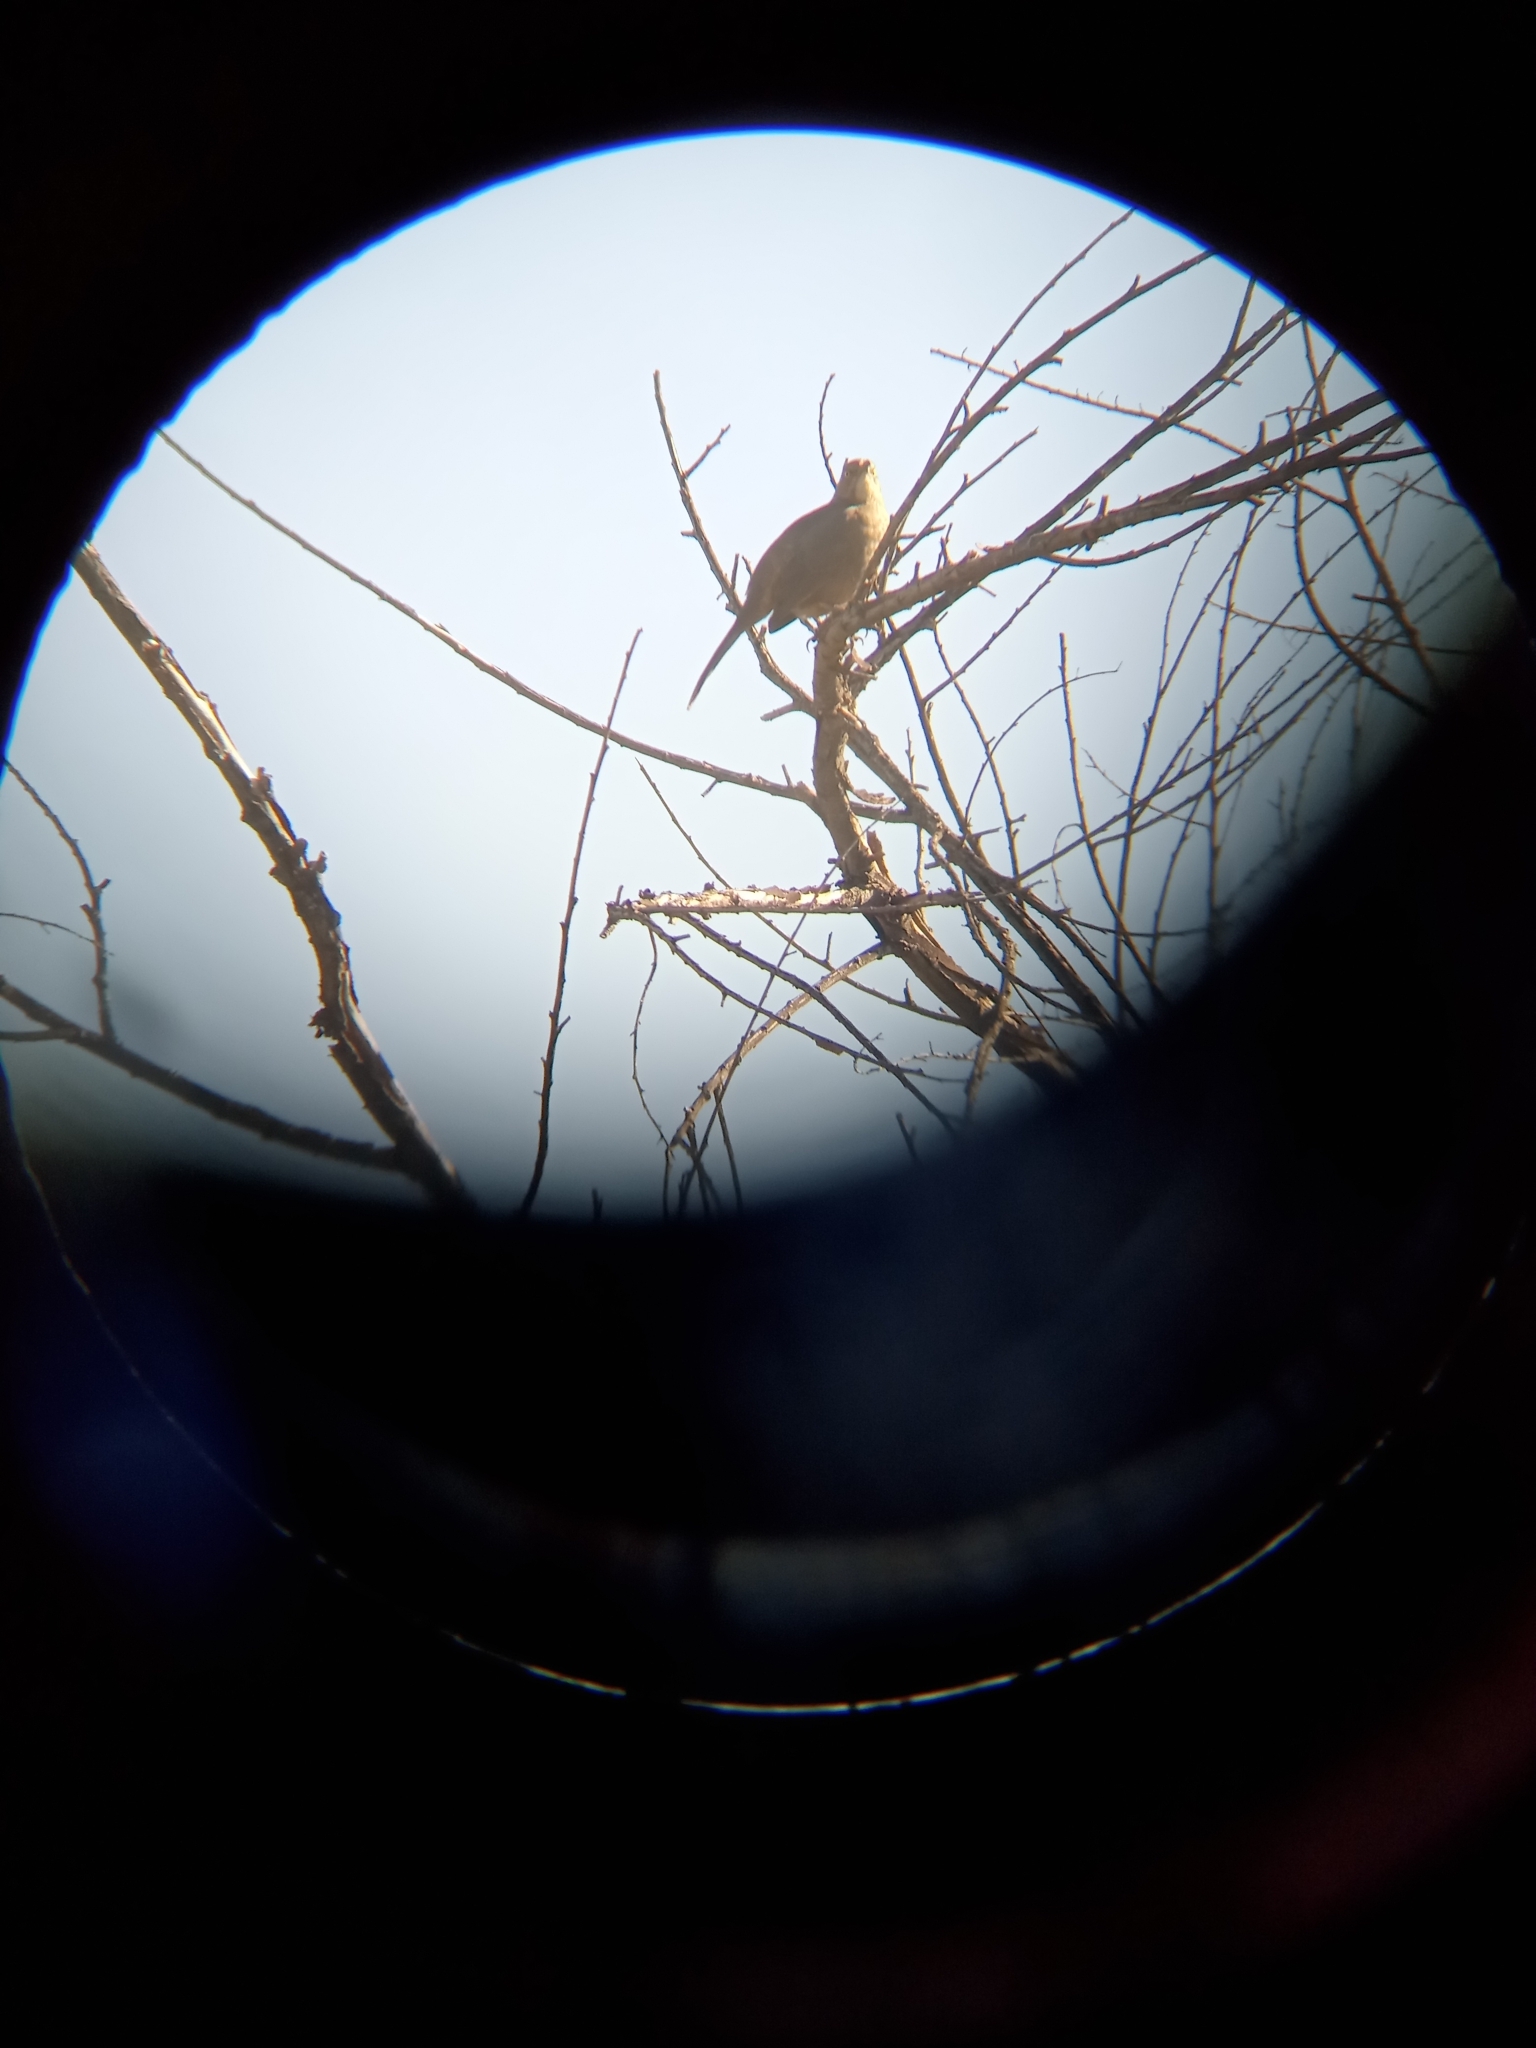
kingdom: Animalia
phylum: Chordata
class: Aves
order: Passeriformes
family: Mimidae
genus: Toxostoma
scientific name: Toxostoma curvirostre
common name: Curve-billed thrasher
